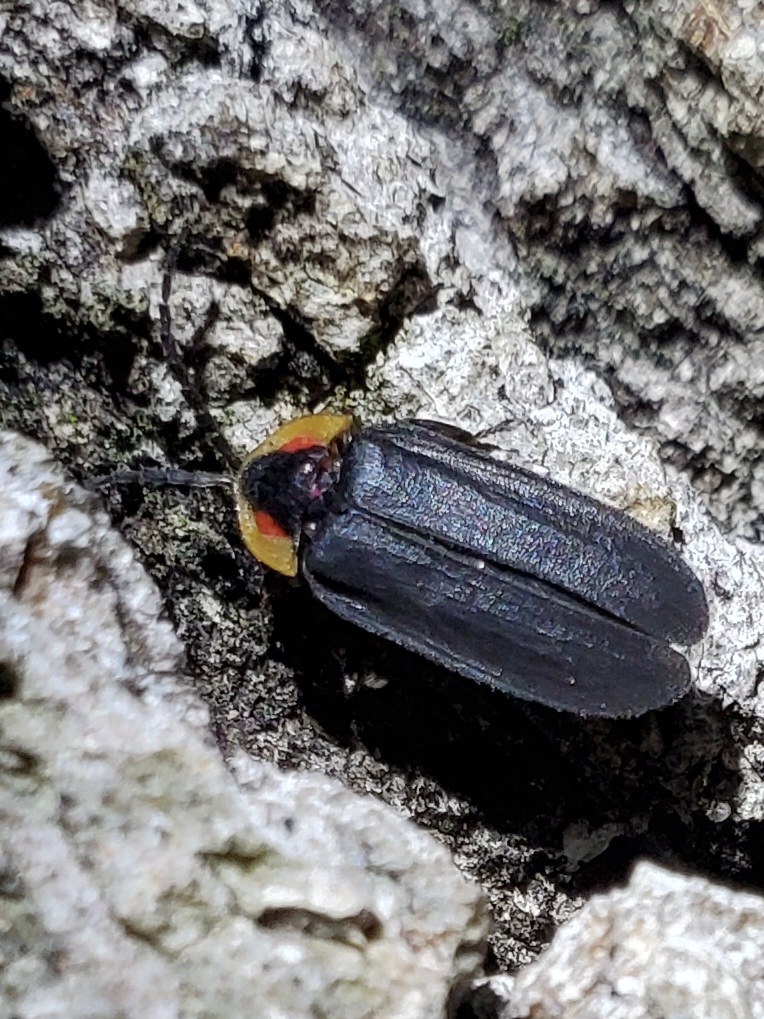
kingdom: Animalia
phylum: Arthropoda
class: Insecta
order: Coleoptera
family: Lampyridae
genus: Lucidota
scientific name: Lucidota atra
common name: Black firefly
